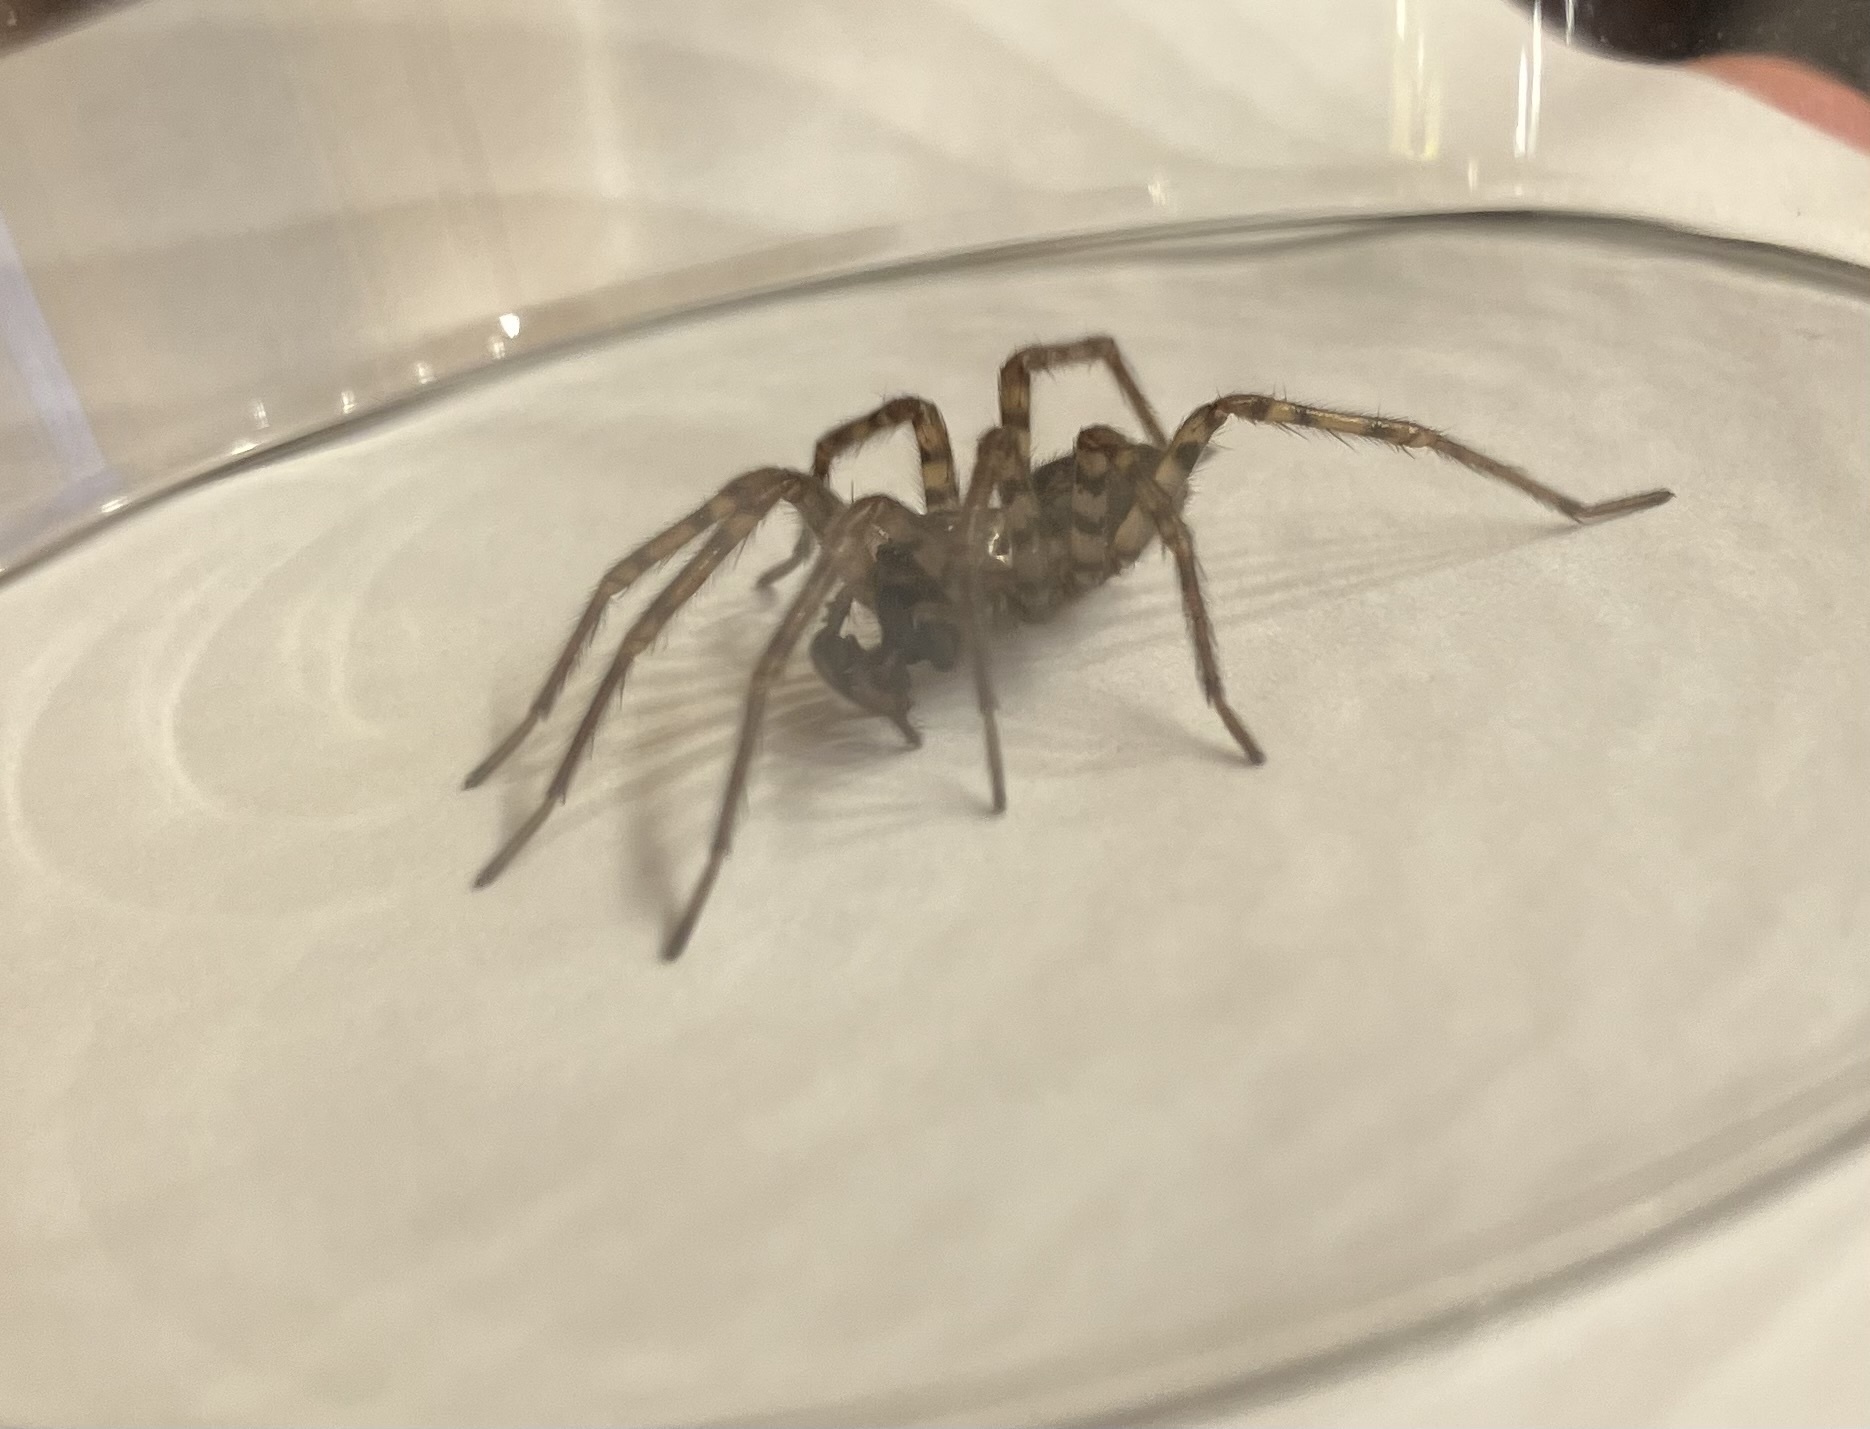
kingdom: Animalia
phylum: Arthropoda
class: Arachnida
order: Araneae
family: Agelenidae
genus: Coras
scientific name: Coras
